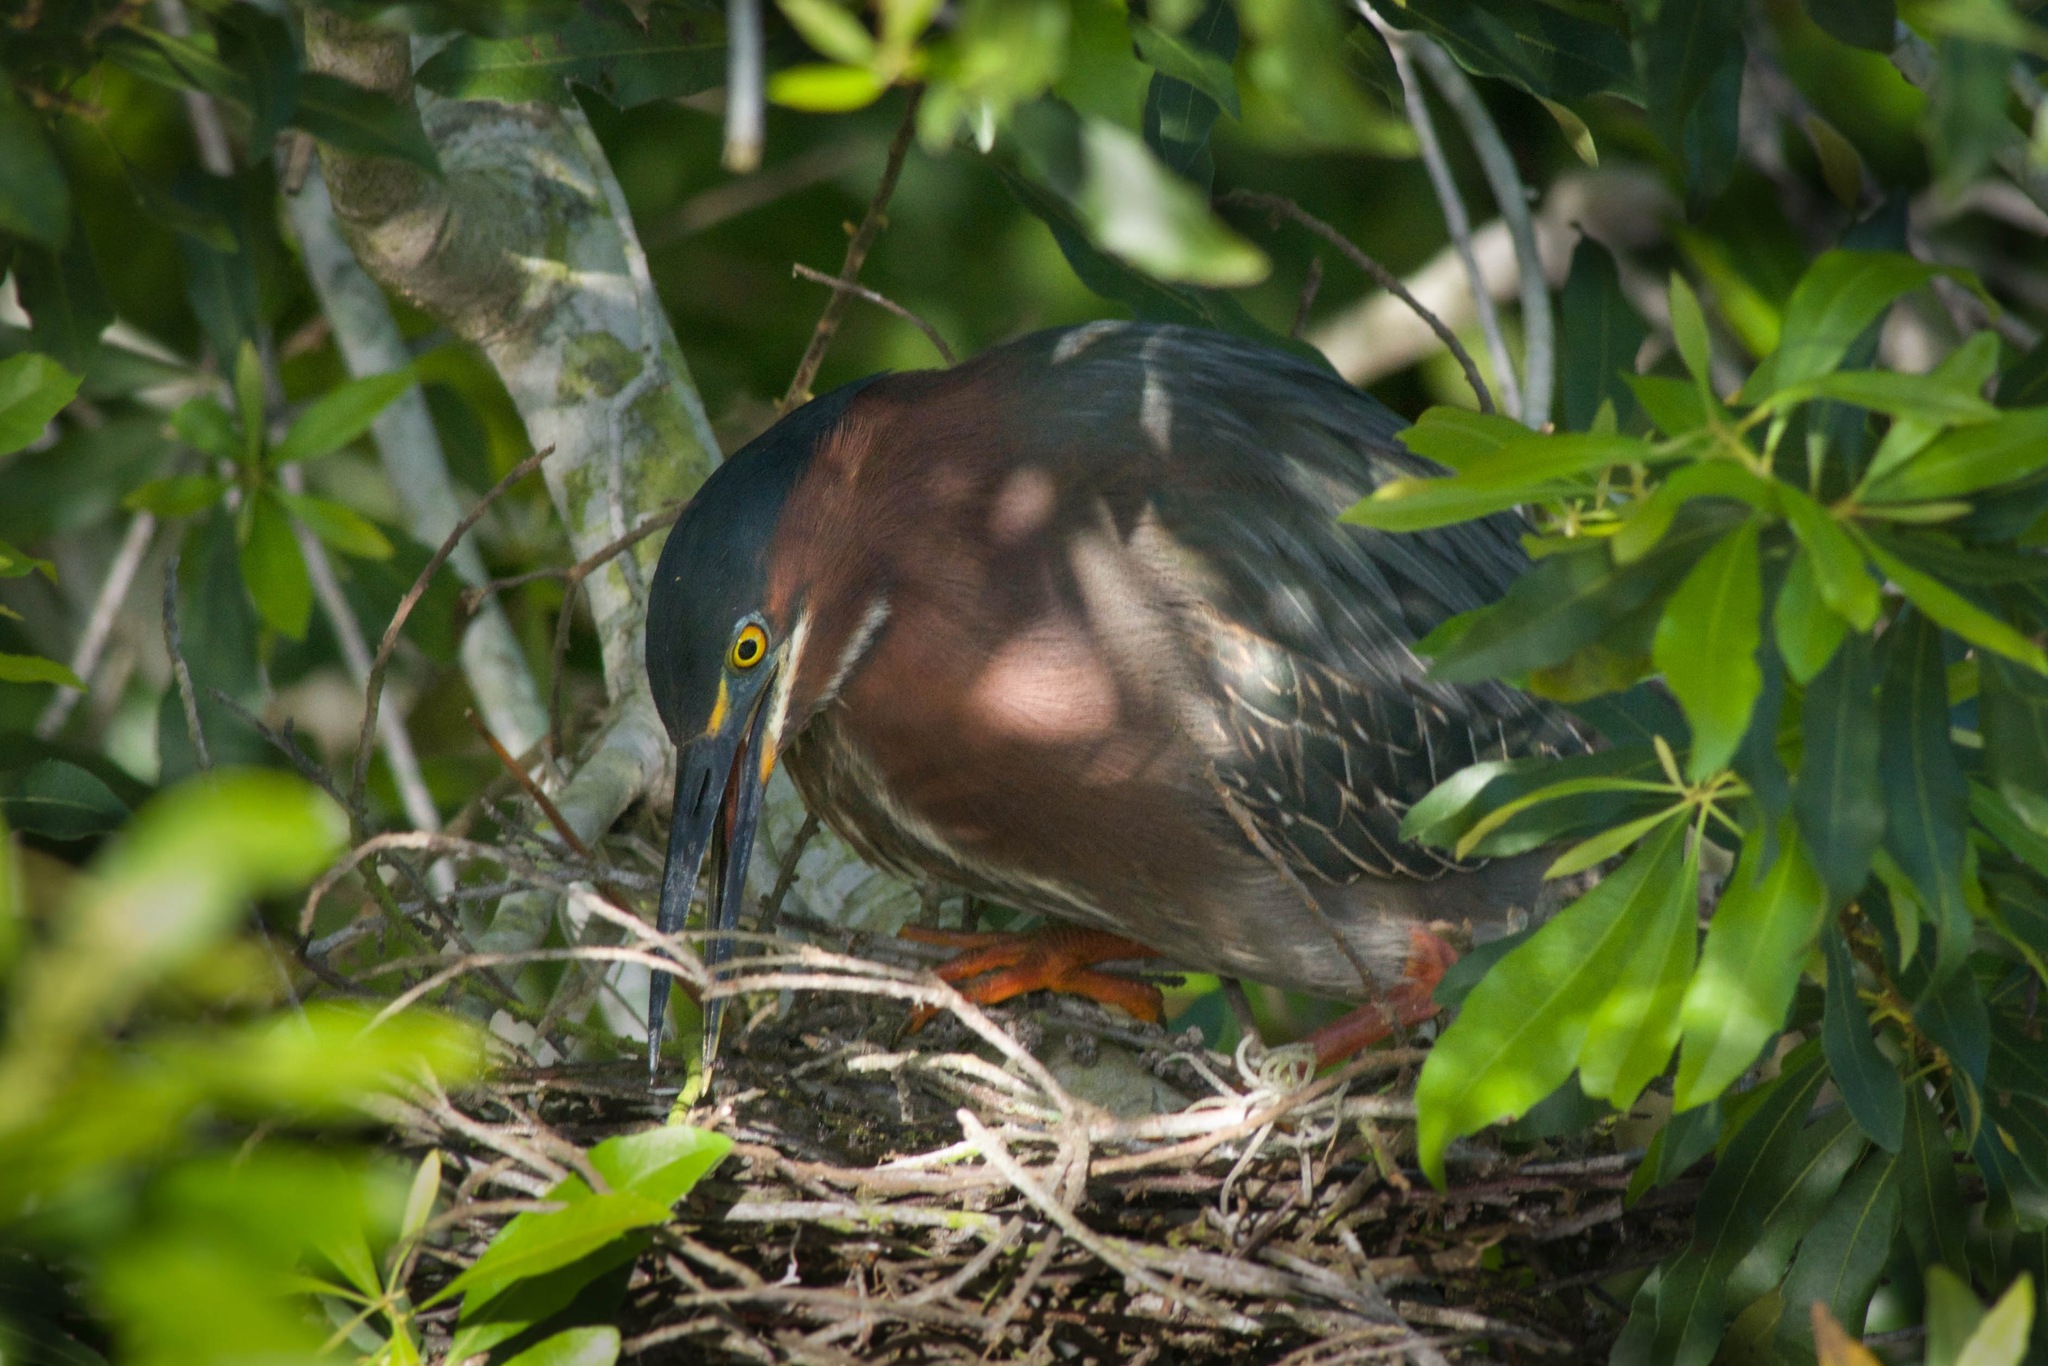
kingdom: Animalia
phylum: Chordata
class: Aves
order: Pelecaniformes
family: Ardeidae
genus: Butorides
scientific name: Butorides virescens
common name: Green heron
